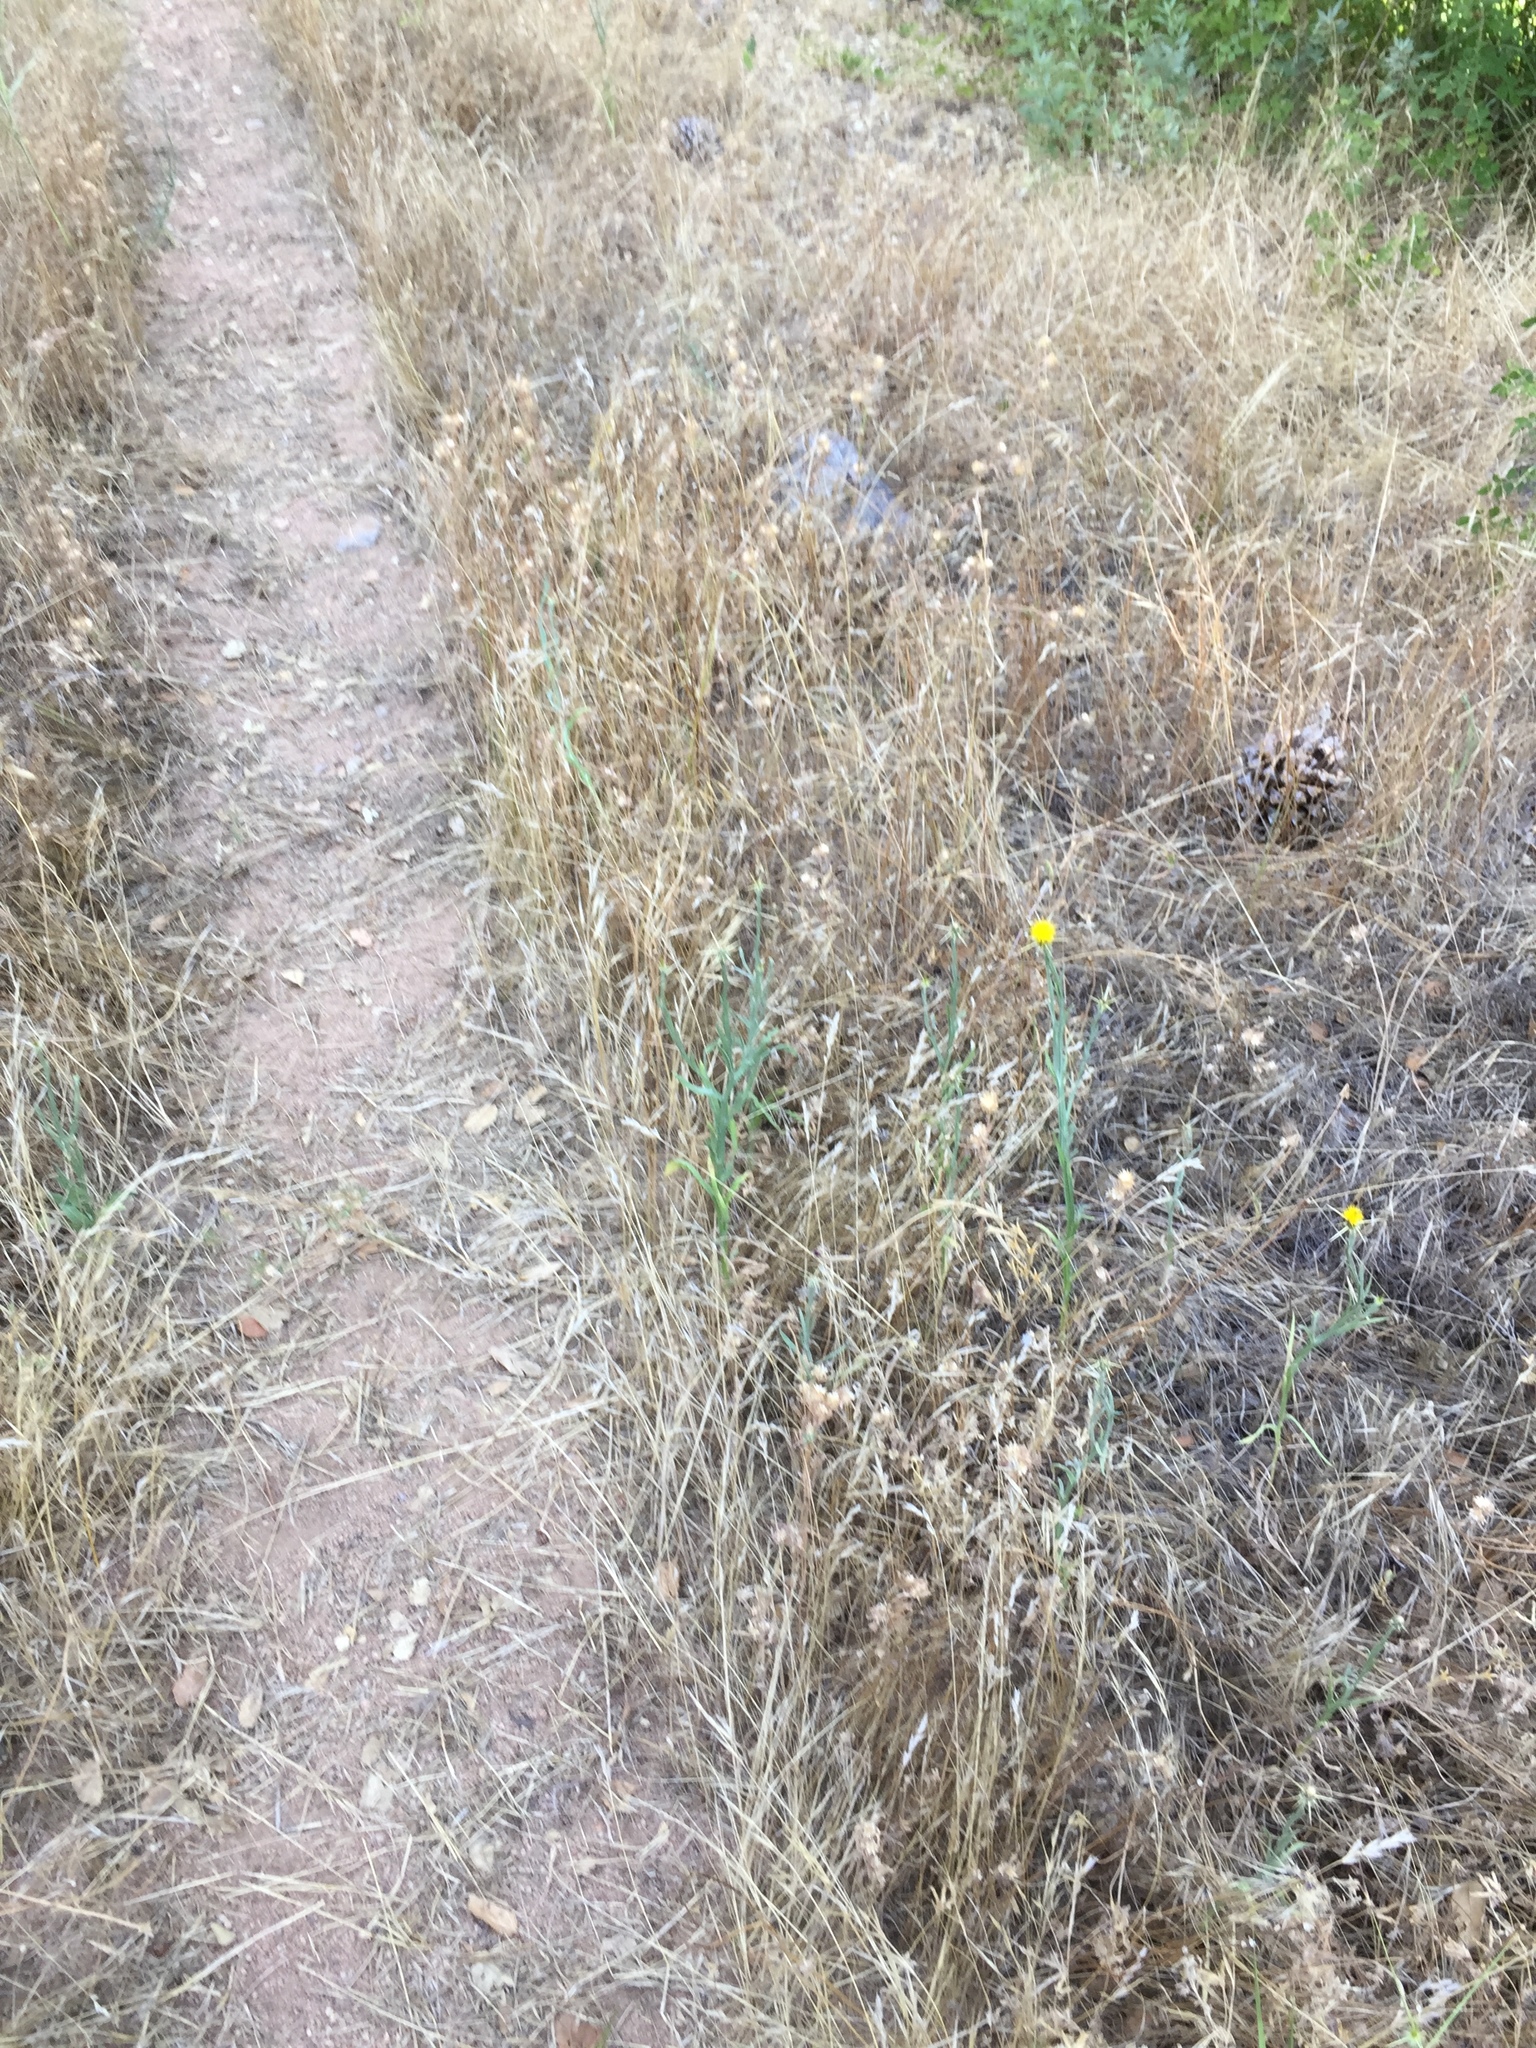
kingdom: Plantae
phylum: Tracheophyta
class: Magnoliopsida
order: Asterales
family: Asteraceae
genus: Centaurea
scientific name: Centaurea solstitialis
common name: Yellow star-thistle
